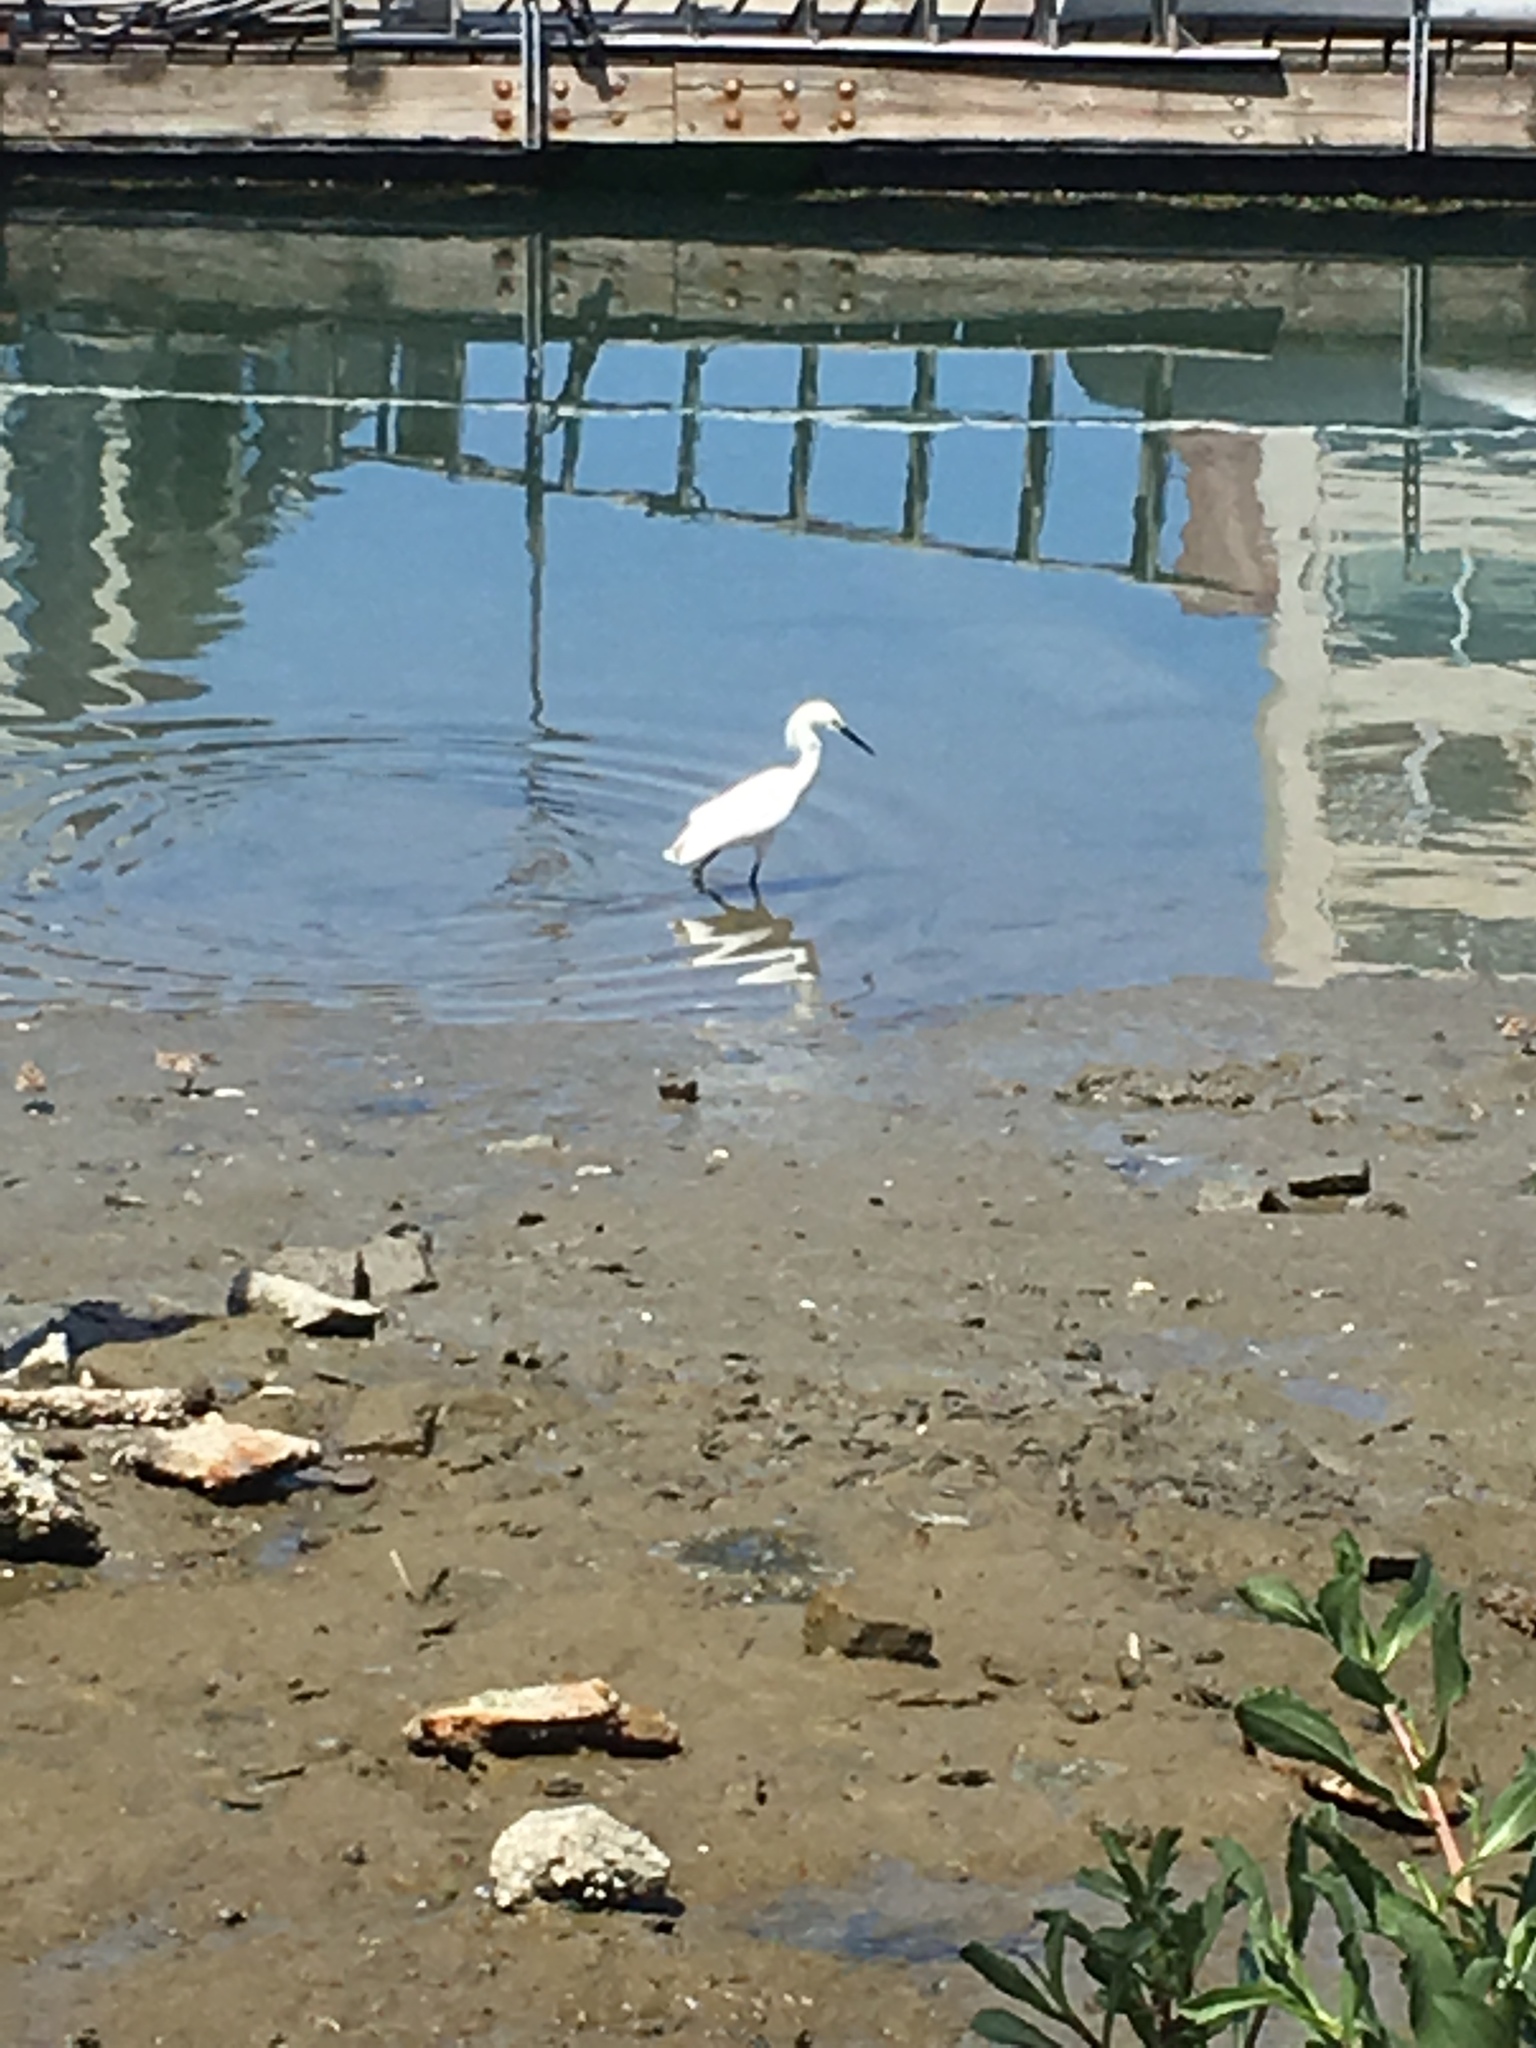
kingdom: Animalia
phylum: Chordata
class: Aves
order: Pelecaniformes
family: Ardeidae
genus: Egretta
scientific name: Egretta thula
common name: Snowy egret
